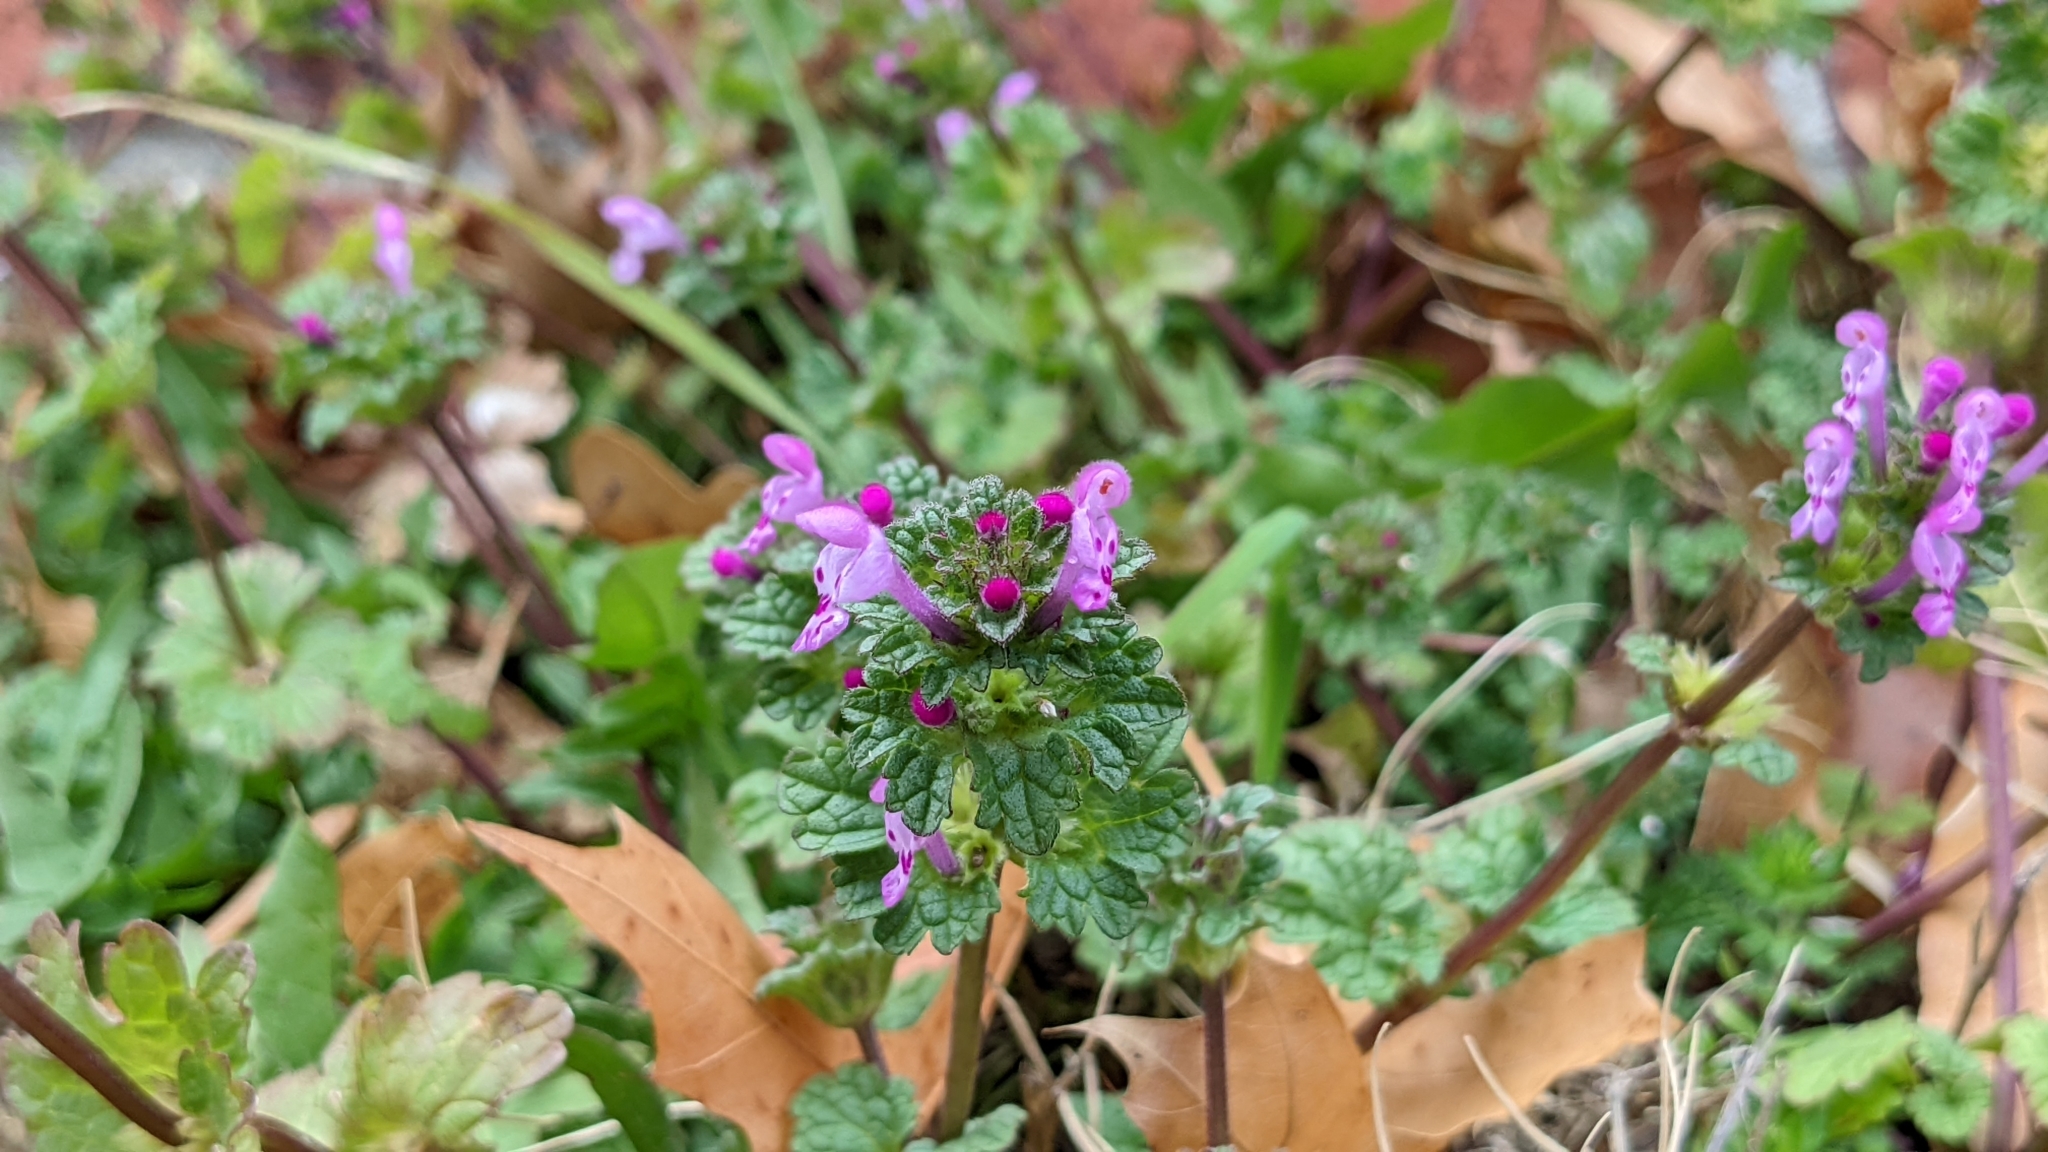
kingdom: Plantae
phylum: Tracheophyta
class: Magnoliopsida
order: Lamiales
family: Lamiaceae
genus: Lamium
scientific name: Lamium amplexicaule
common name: Henbit dead-nettle
